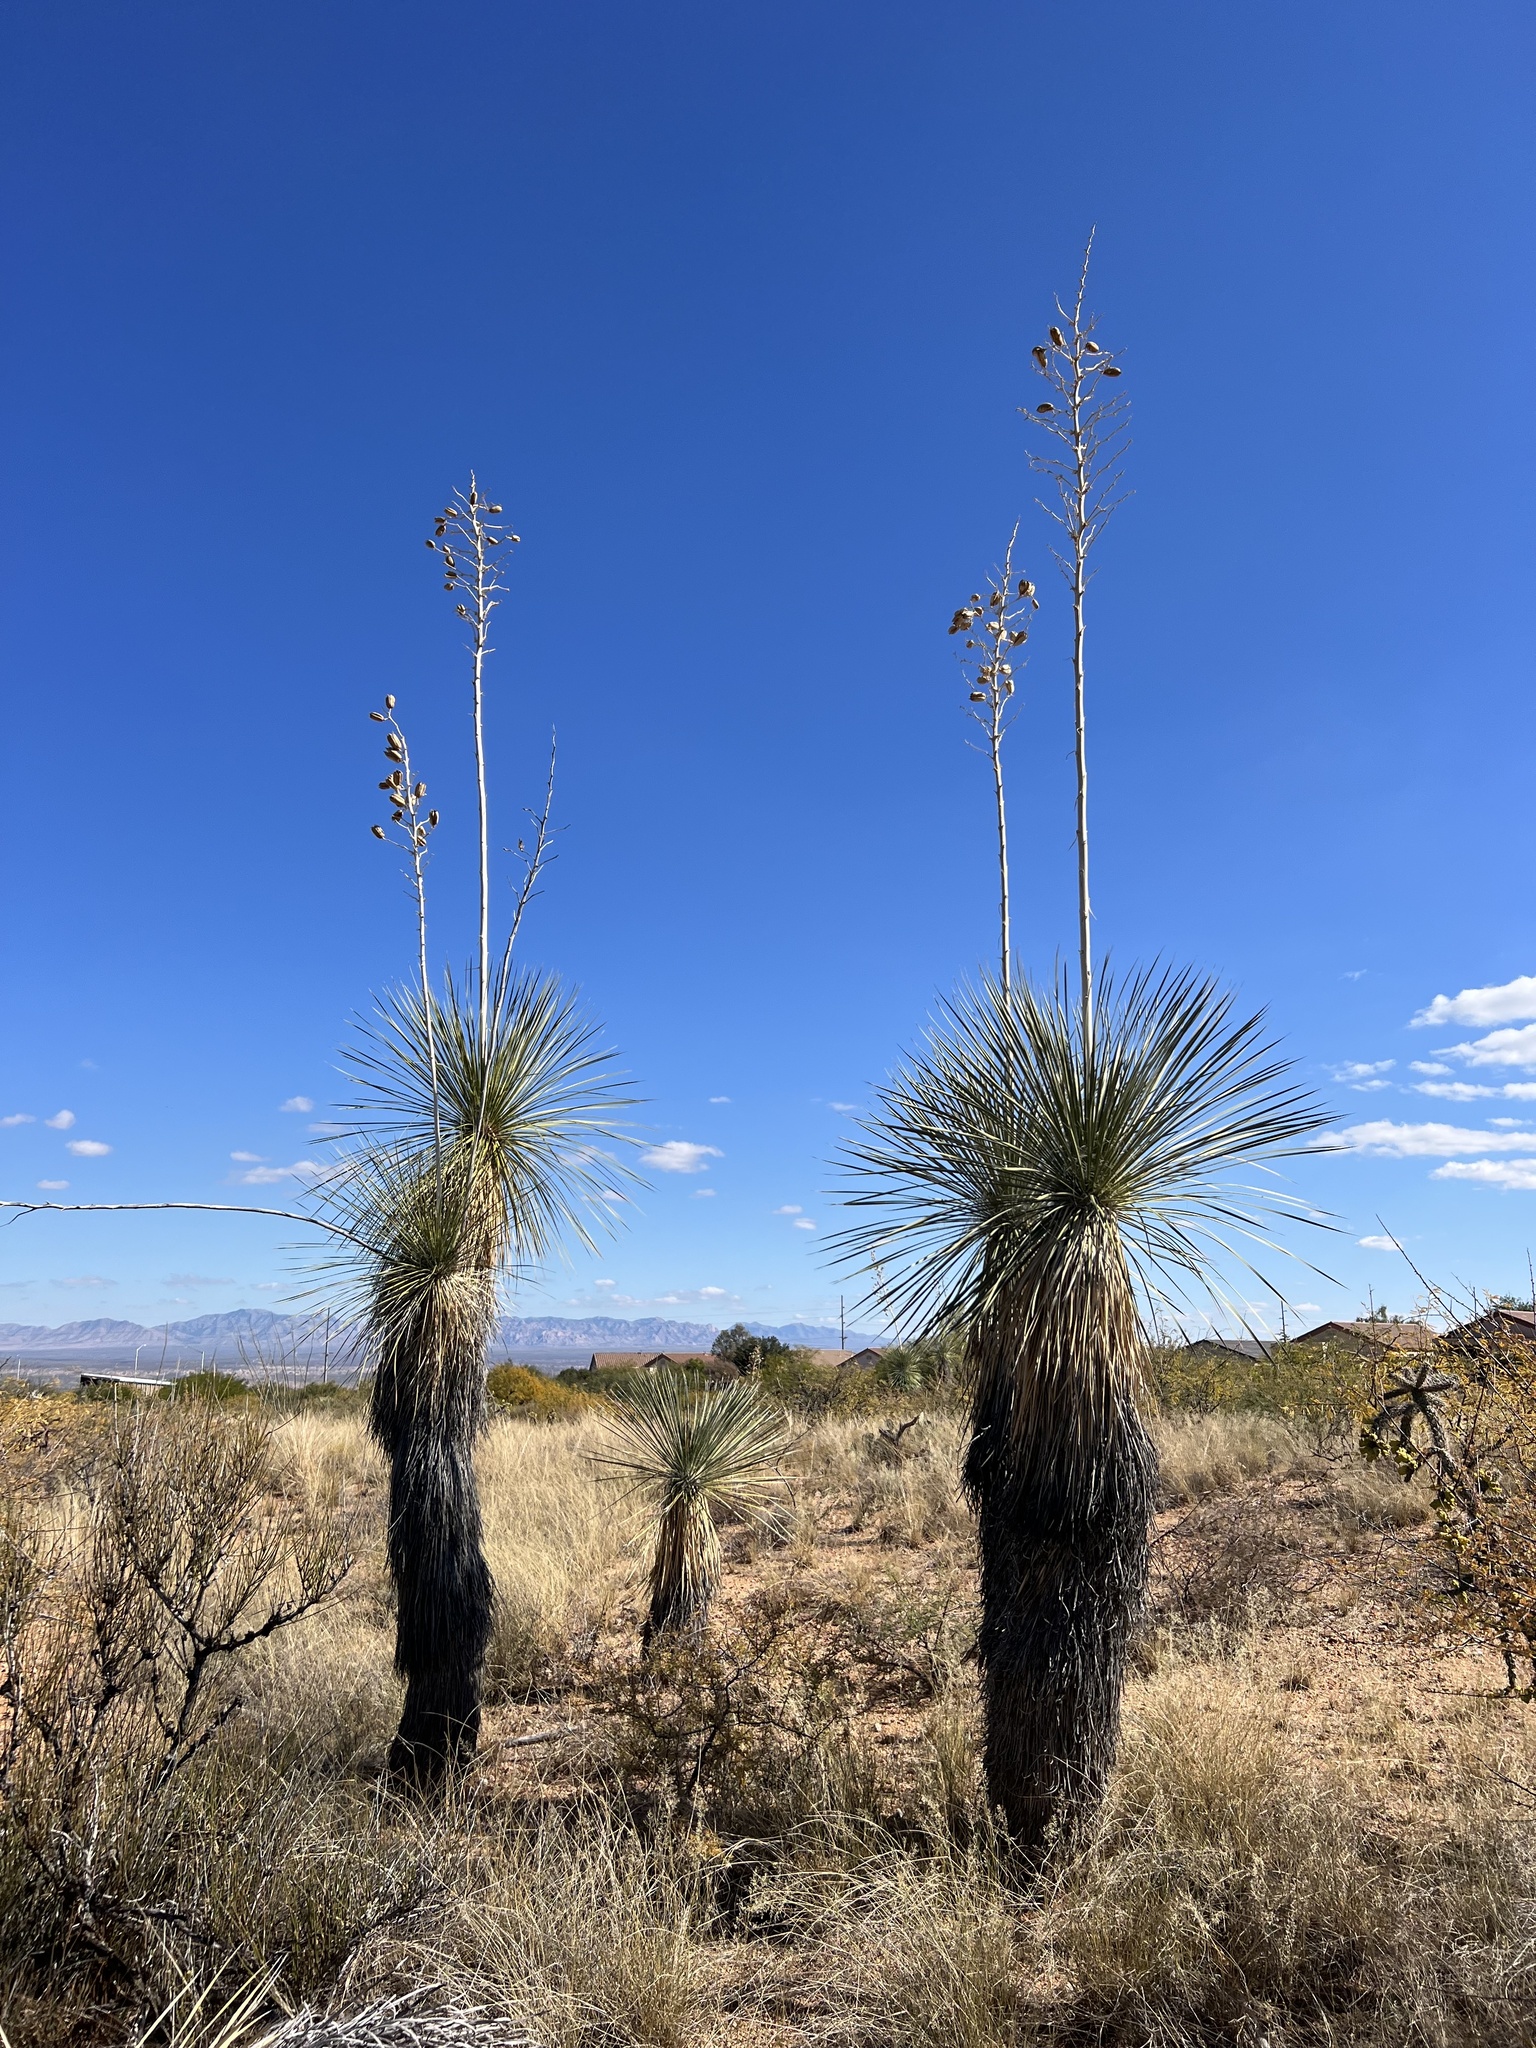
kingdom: Plantae
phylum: Tracheophyta
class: Liliopsida
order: Asparagales
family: Asparagaceae
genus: Yucca
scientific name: Yucca elata
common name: Palmella
